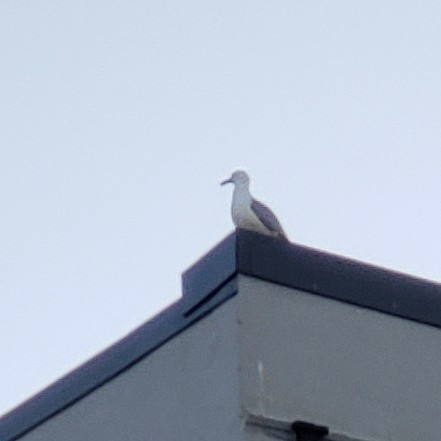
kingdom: Animalia
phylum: Chordata
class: Aves
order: Charadriiformes
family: Laridae
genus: Larus
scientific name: Larus argentatus
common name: Herring gull
